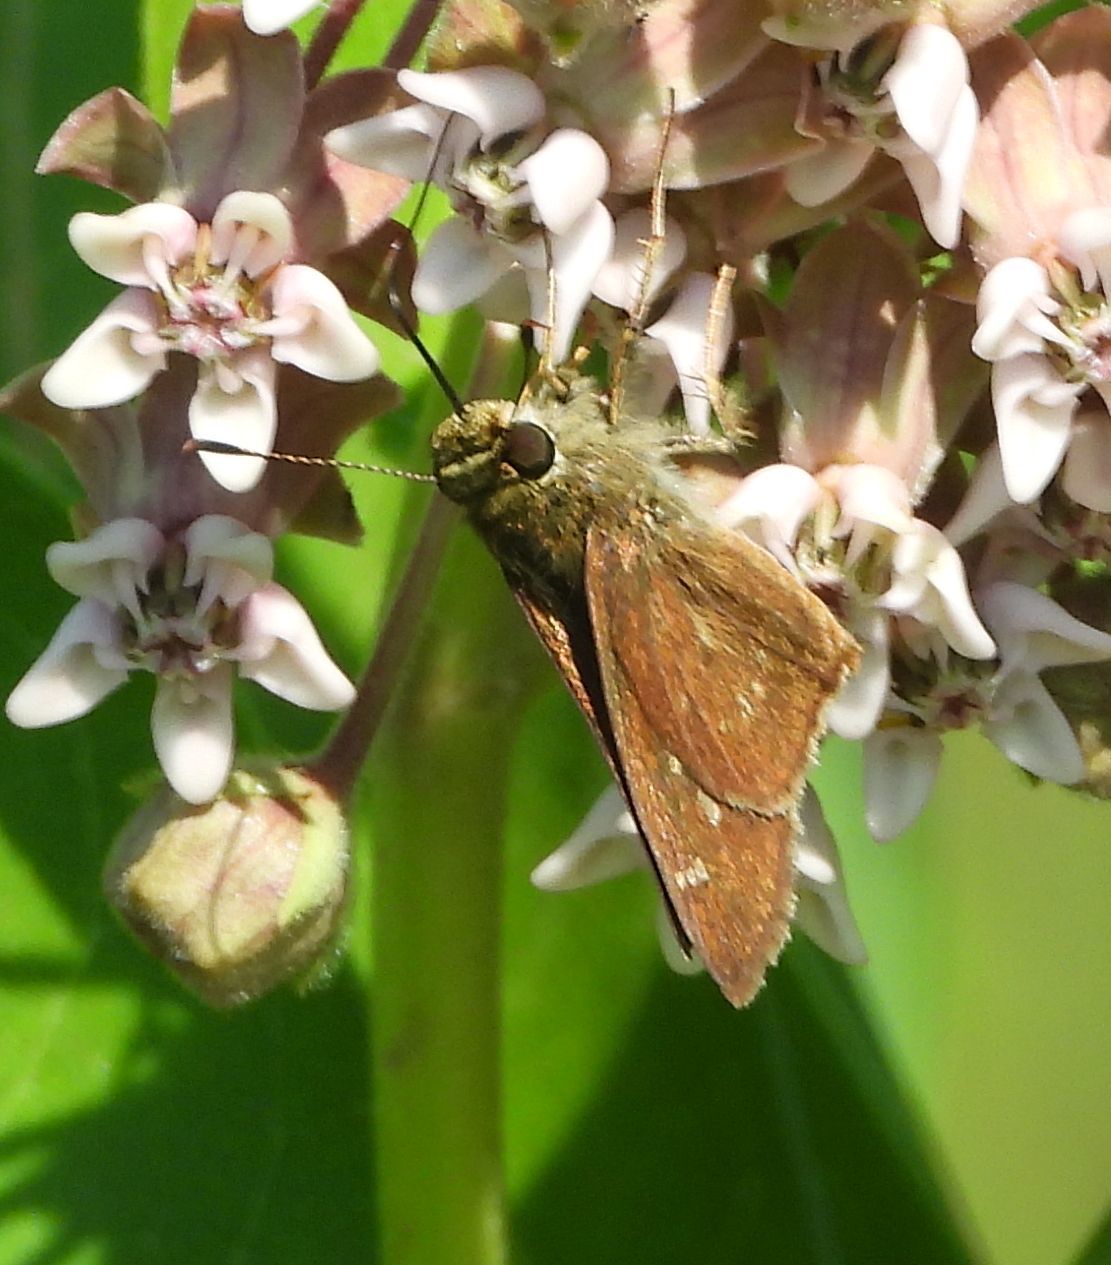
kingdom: Animalia
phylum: Arthropoda
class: Insecta
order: Lepidoptera
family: Hesperiidae
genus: Vernia
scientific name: Vernia verna
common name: Little glassywing
